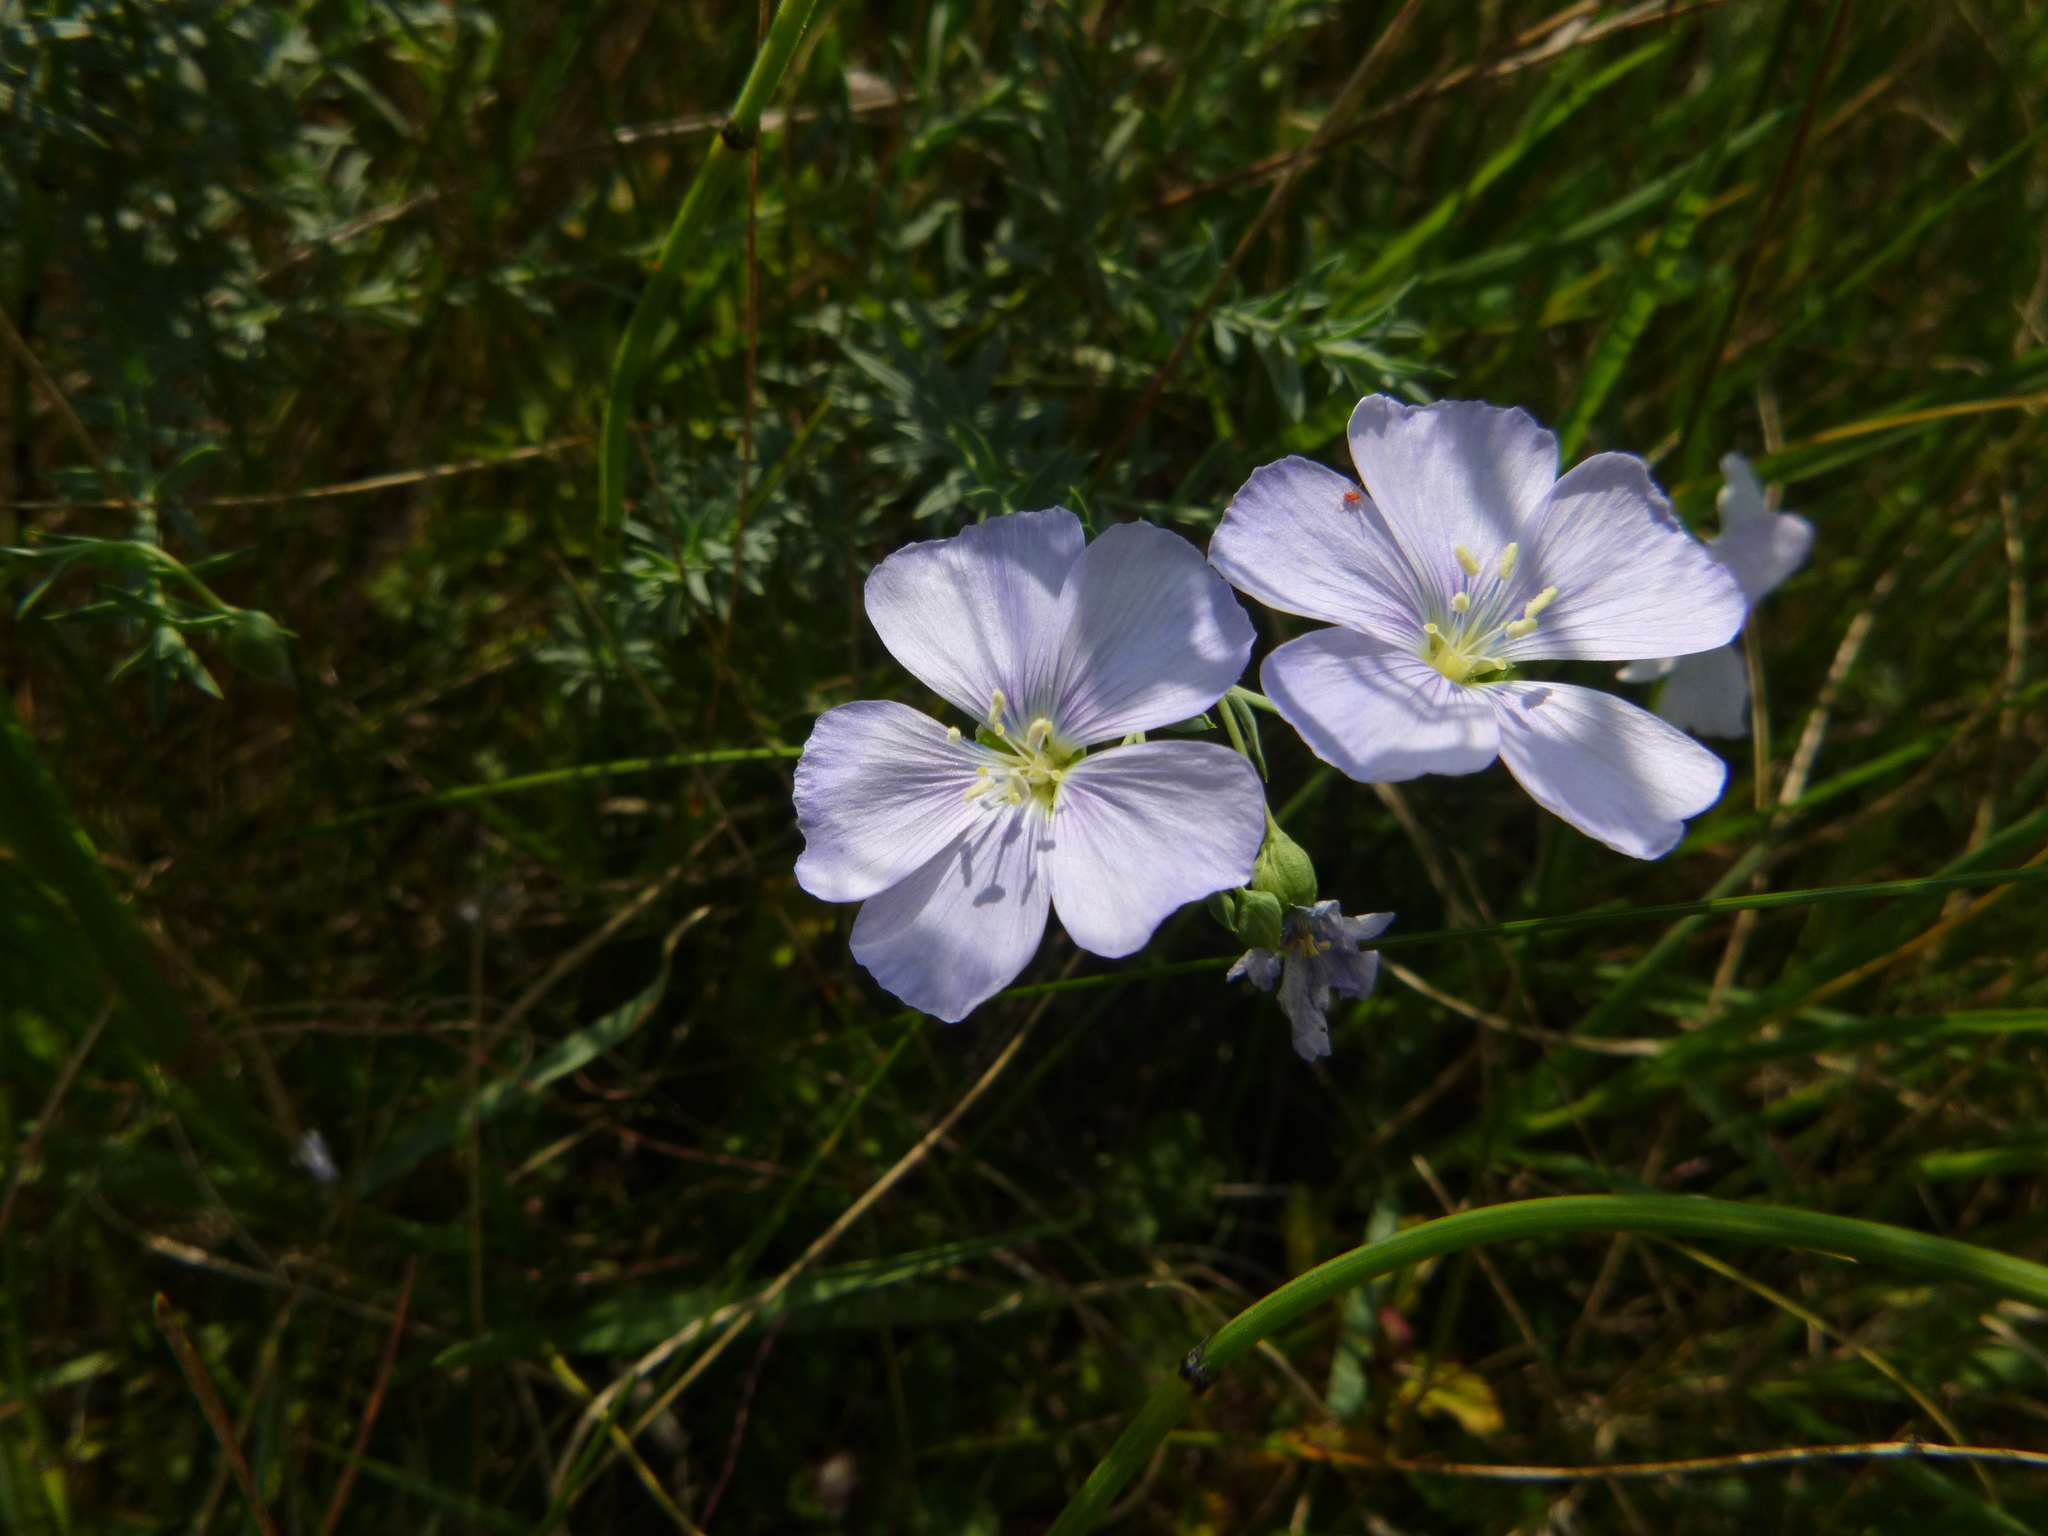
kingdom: Plantae
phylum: Tracheophyta
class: Magnoliopsida
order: Malpighiales
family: Linaceae
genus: Linum
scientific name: Linum austriacum
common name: Austrian flax
